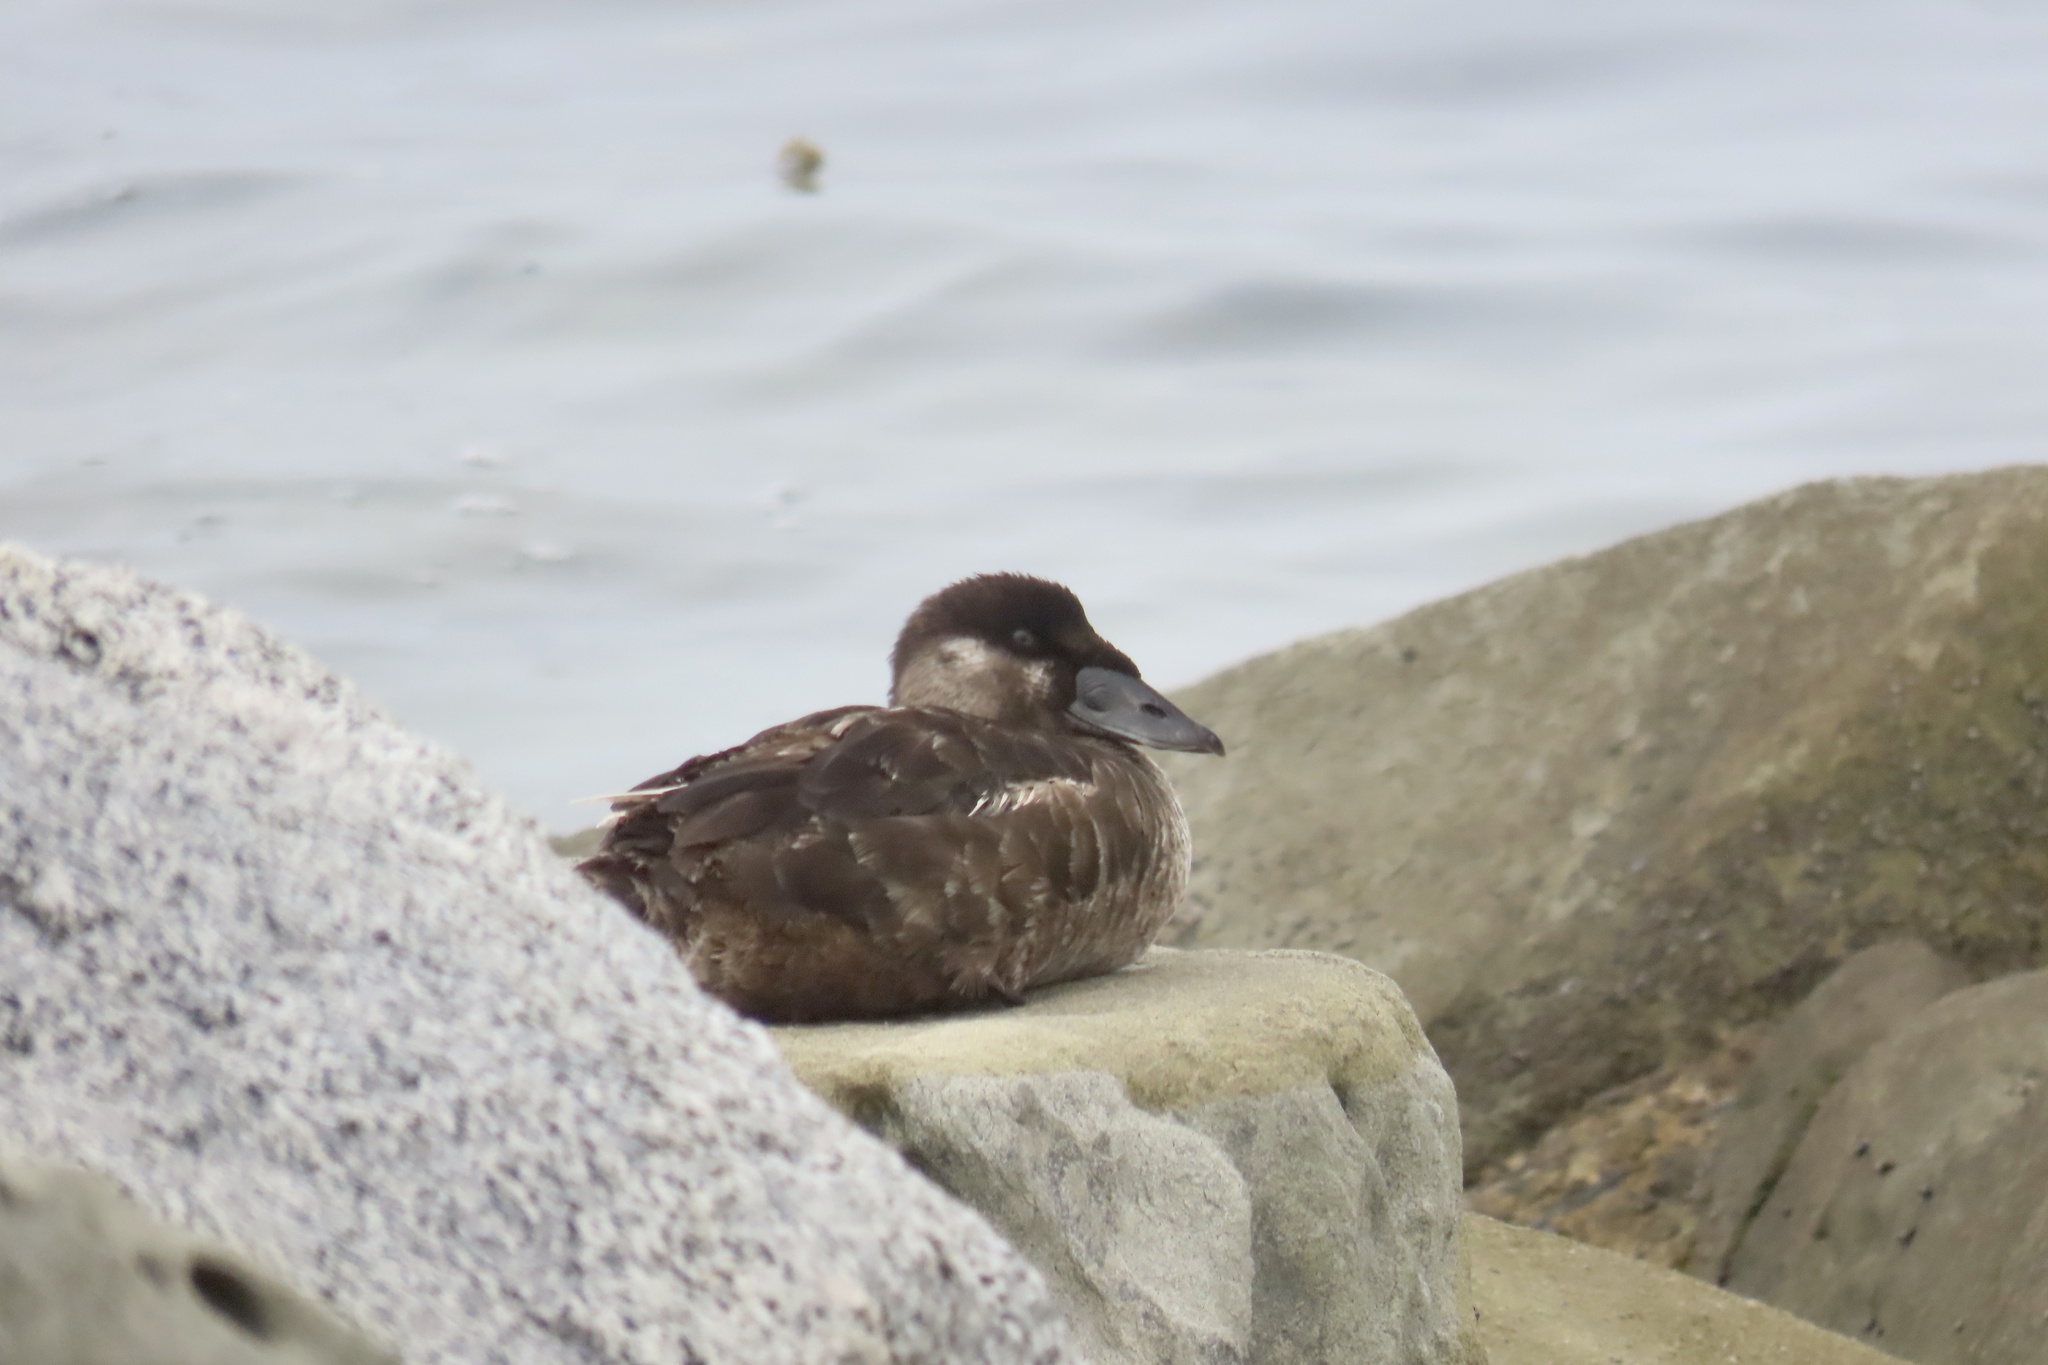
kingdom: Animalia
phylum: Chordata
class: Aves
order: Anseriformes
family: Anatidae
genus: Melanitta
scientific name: Melanitta perspicillata
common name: Surf scoter
